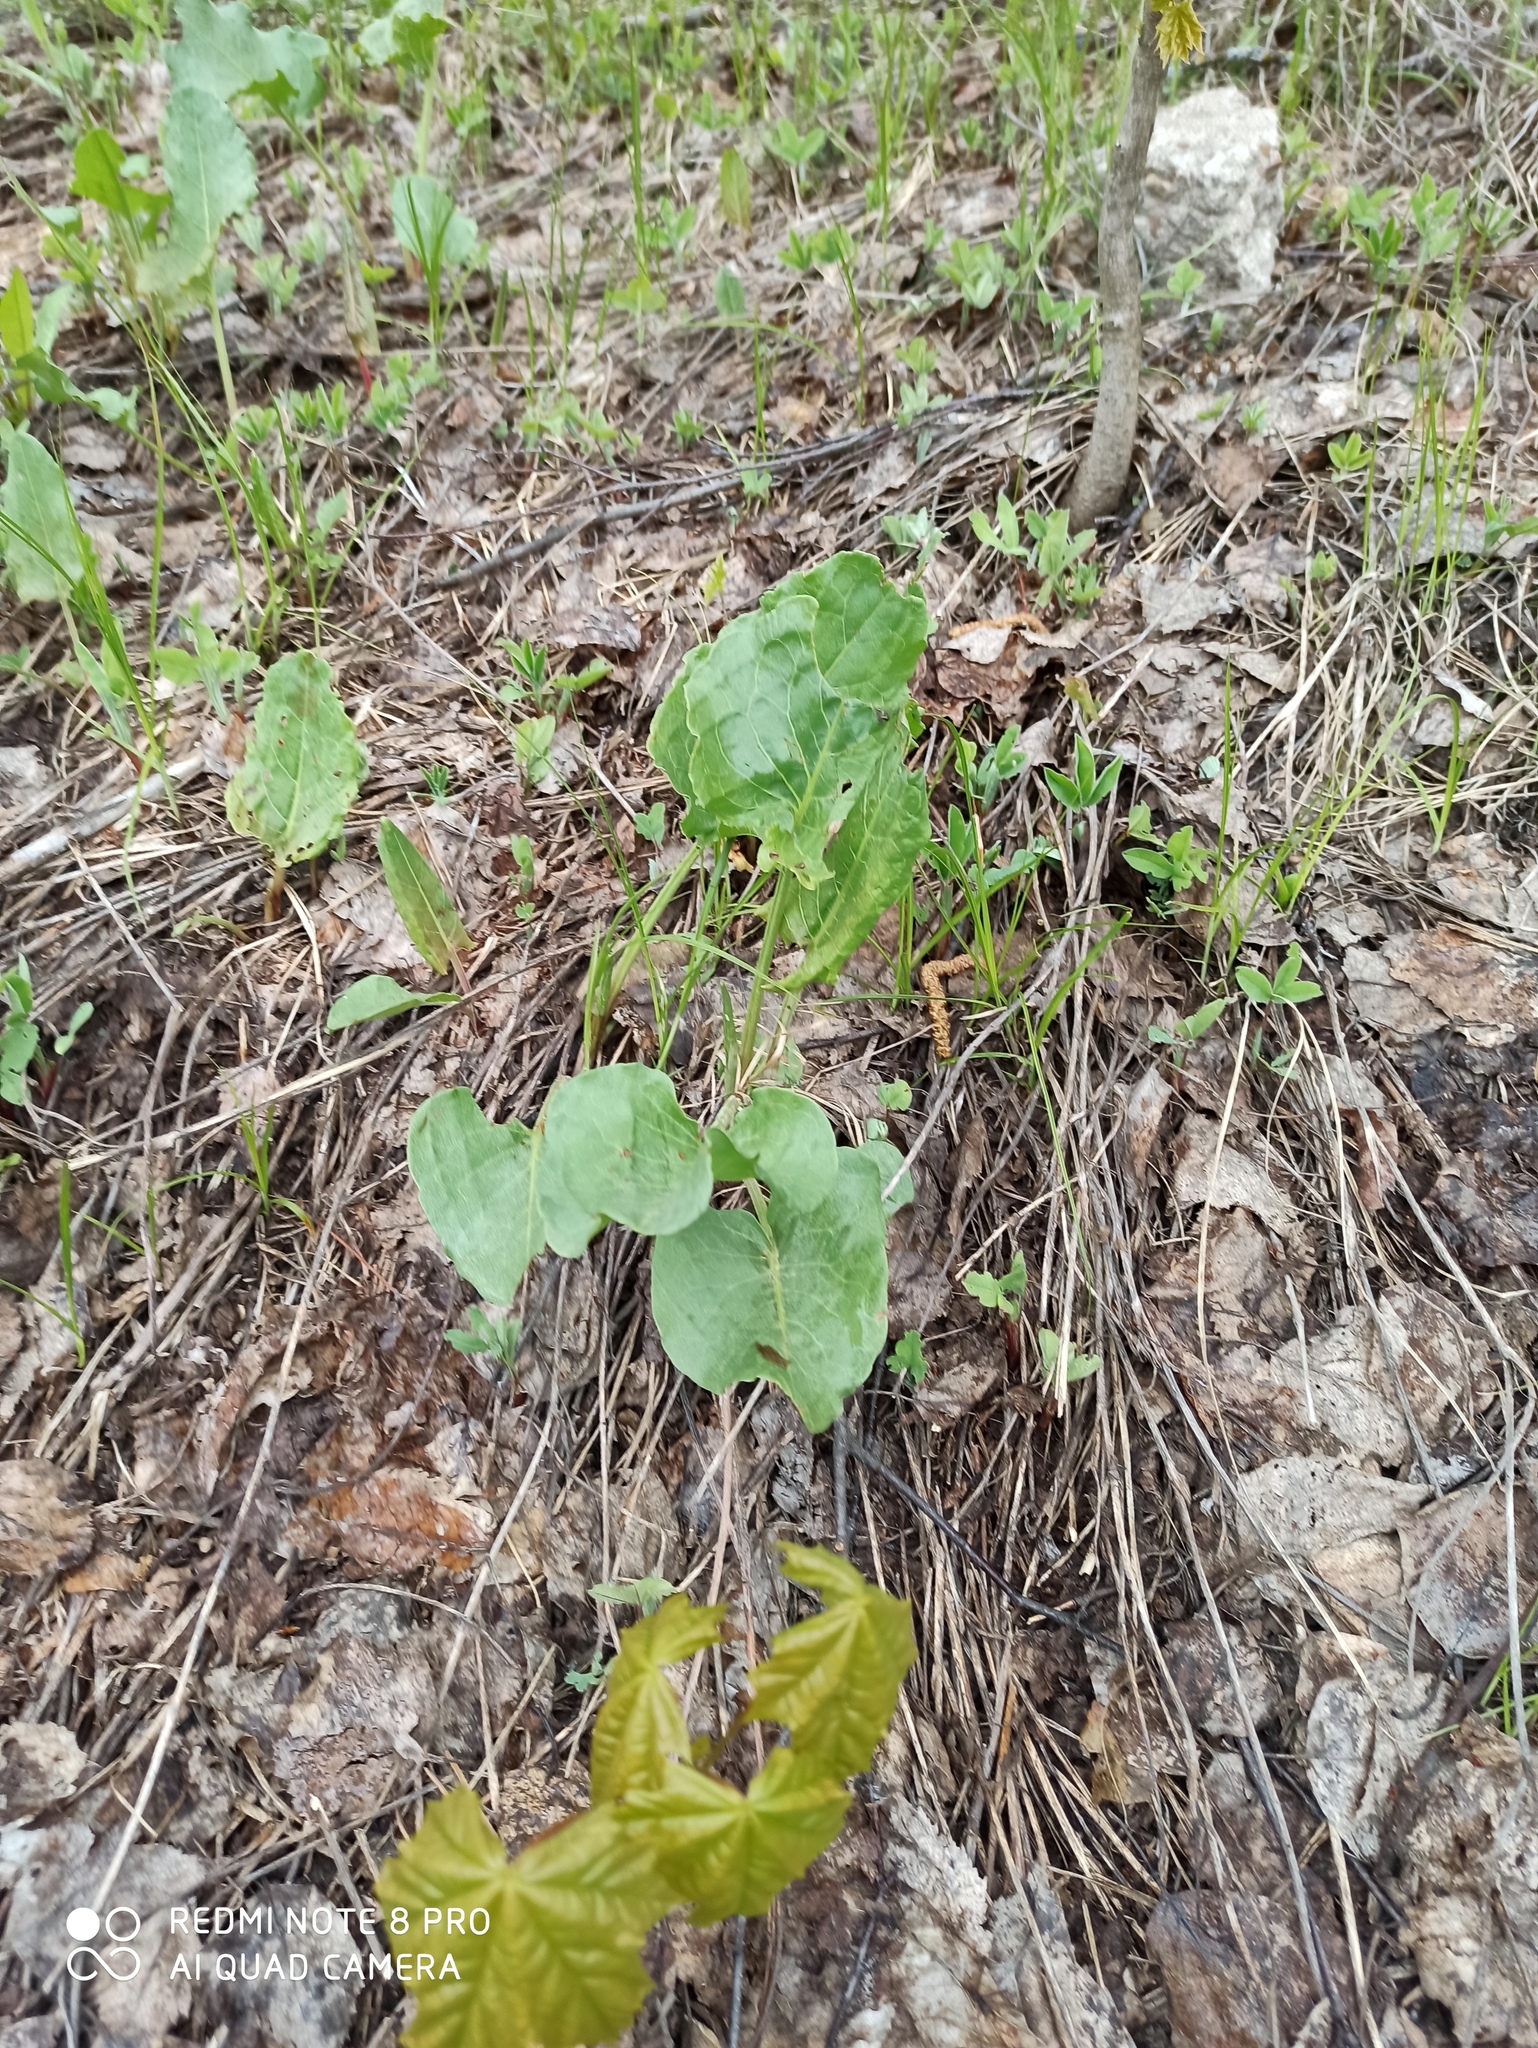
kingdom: Plantae
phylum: Tracheophyta
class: Magnoliopsida
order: Caryophyllales
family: Polygonaceae
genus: Rumex
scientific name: Rumex confertus
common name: Russian dock
